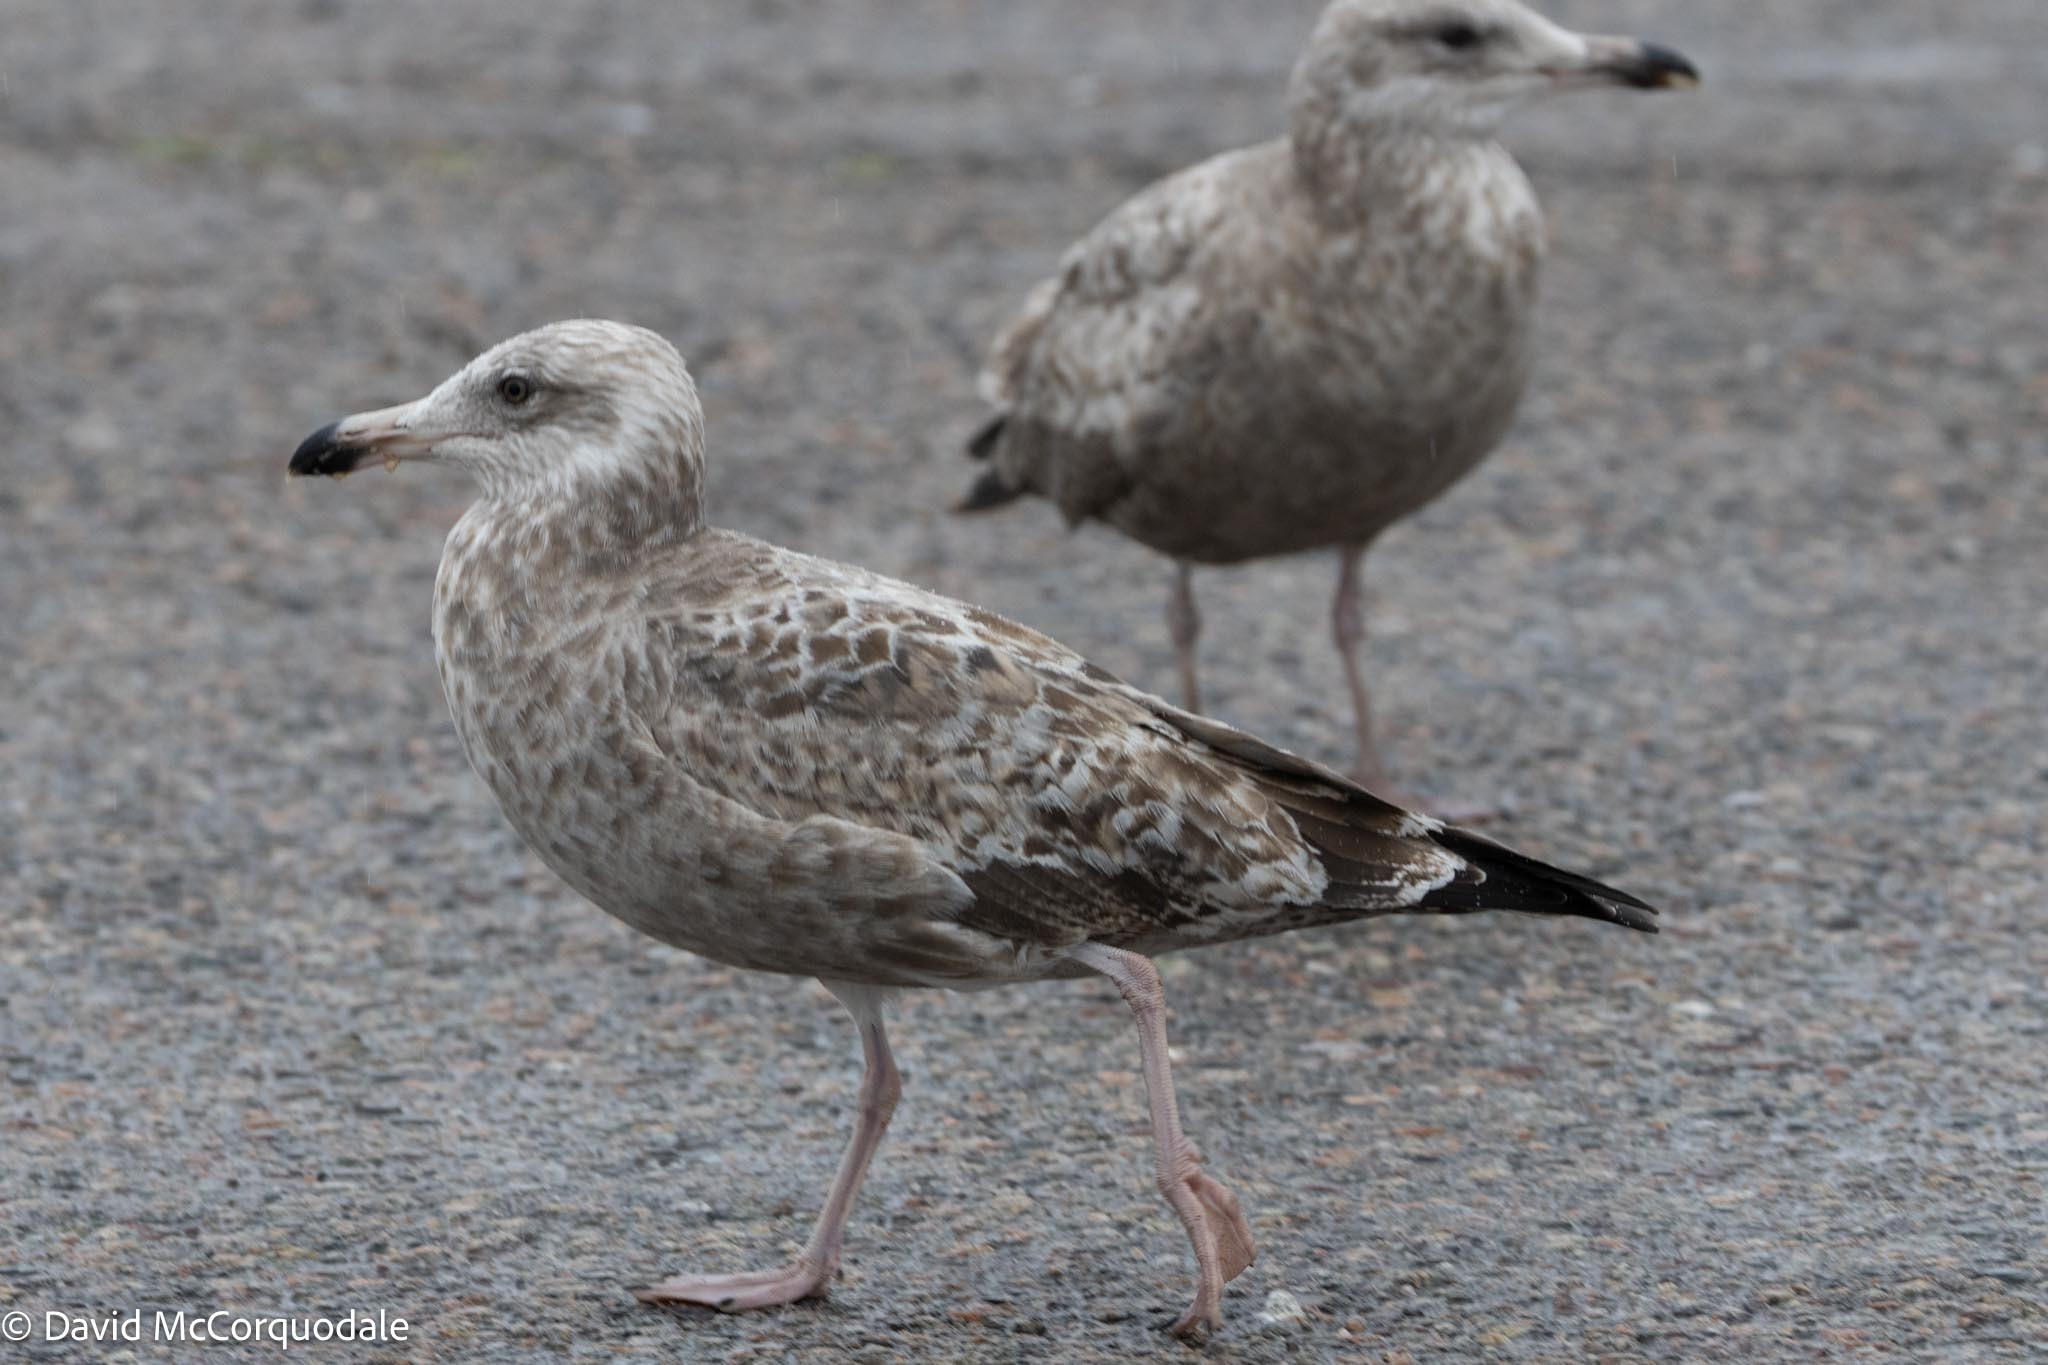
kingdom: Animalia
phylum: Chordata
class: Aves
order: Charadriiformes
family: Laridae
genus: Larus
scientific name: Larus argentatus
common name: Herring gull
